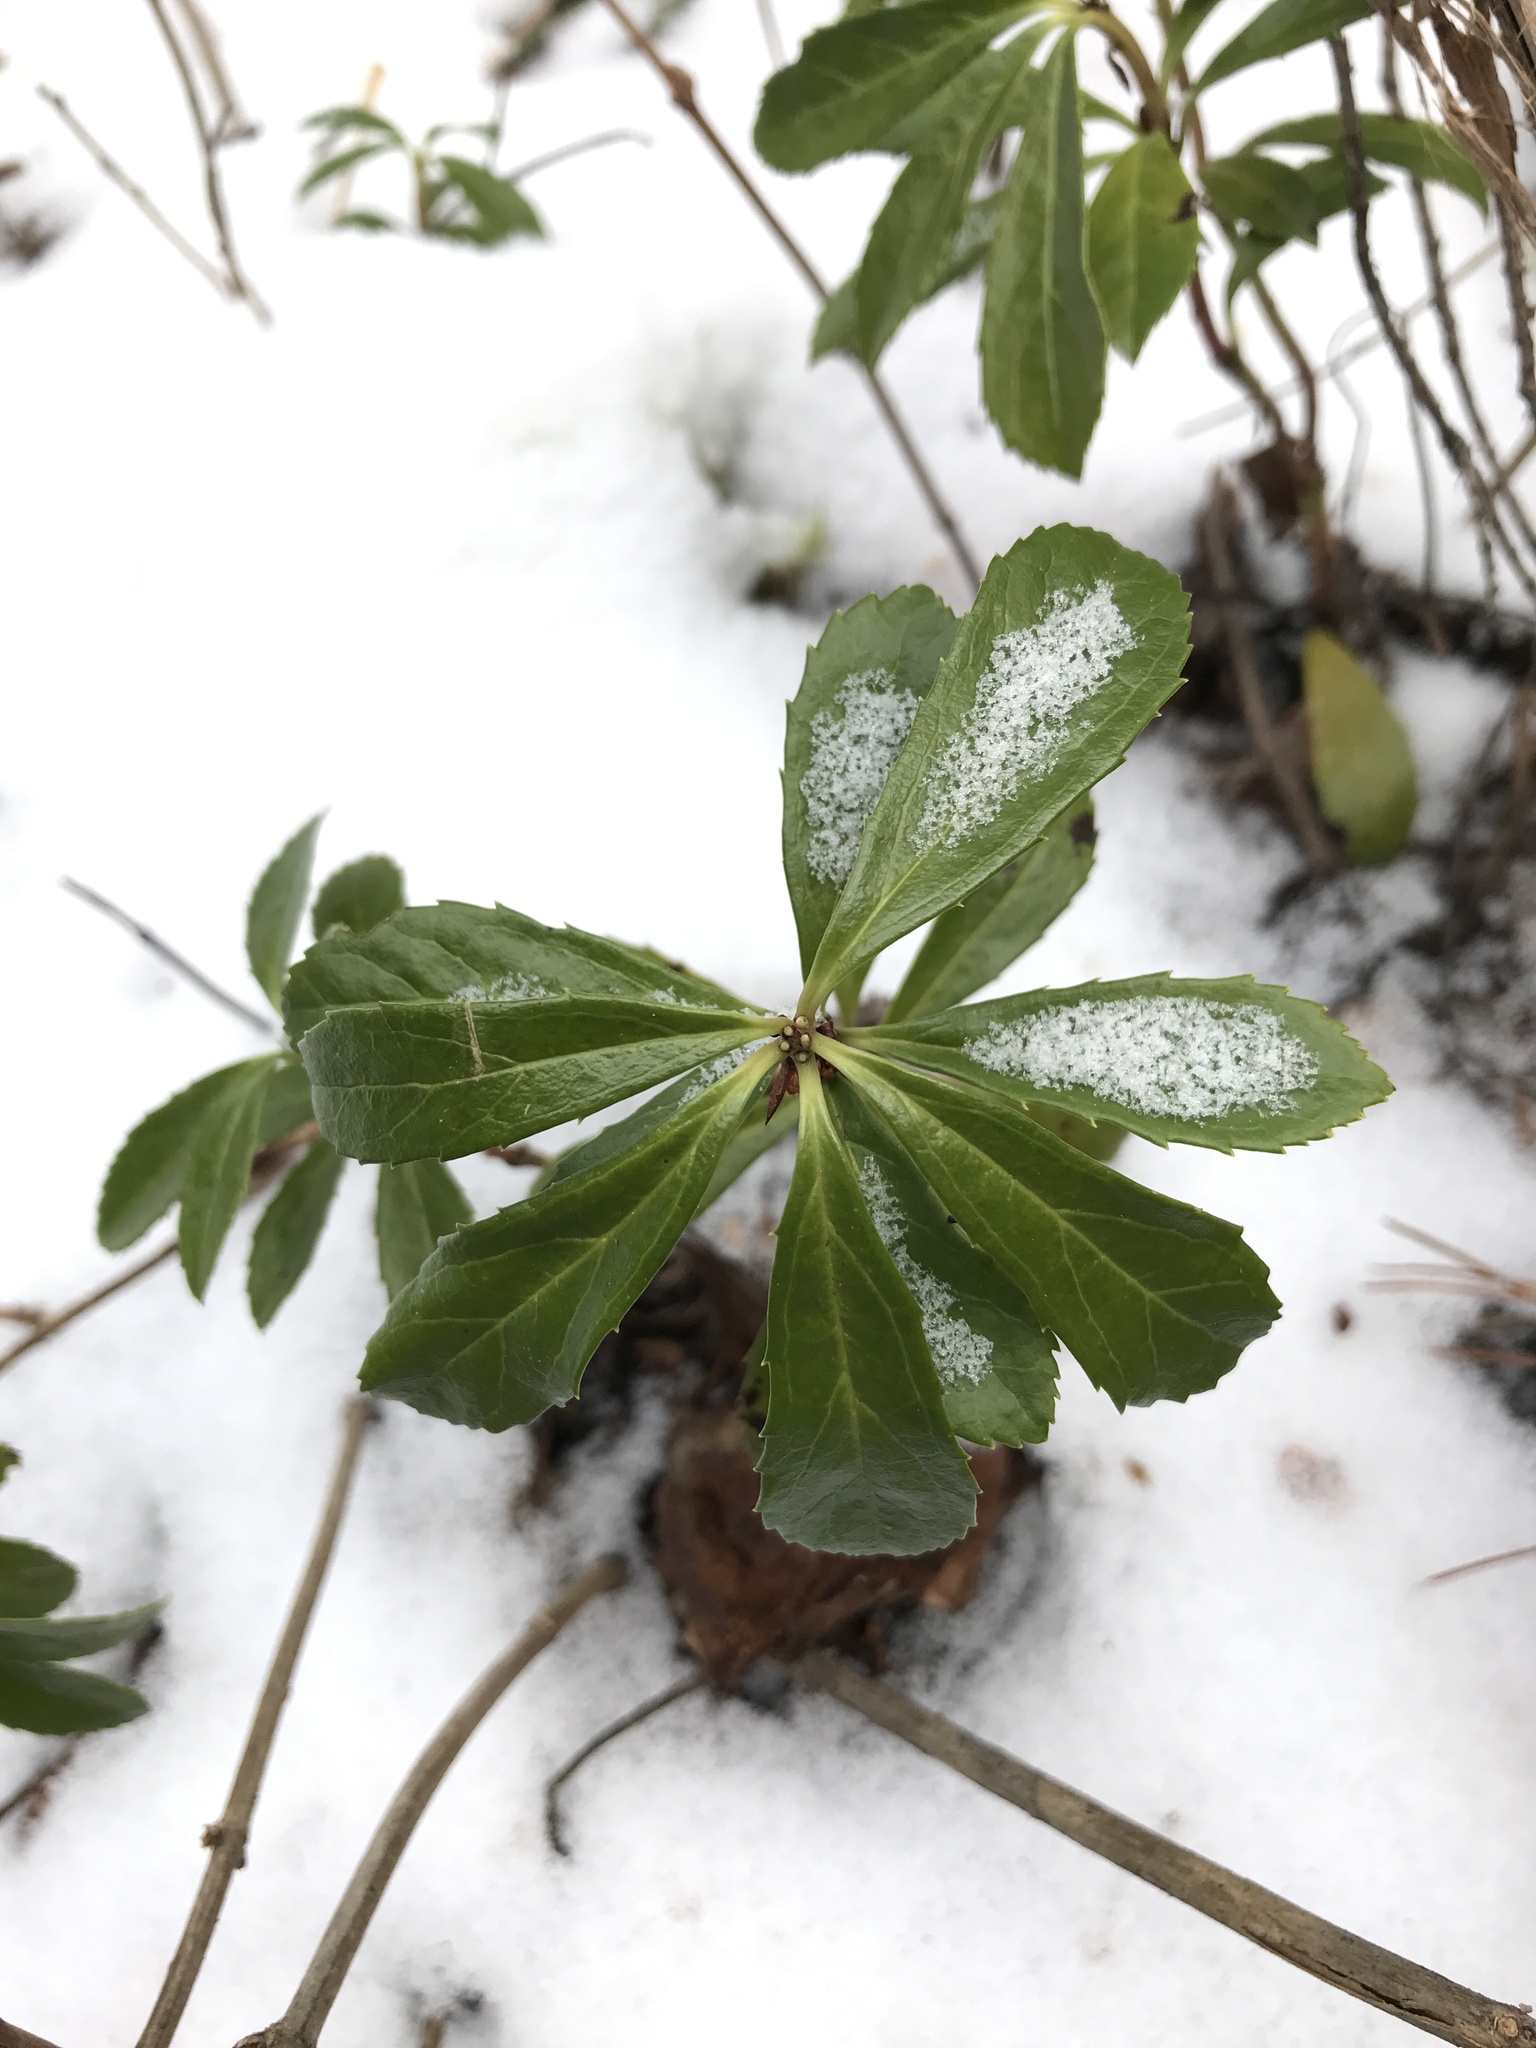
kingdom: Plantae
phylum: Tracheophyta
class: Magnoliopsida
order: Ericales
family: Ericaceae
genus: Chimaphila
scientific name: Chimaphila umbellata
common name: Pipsissewa
